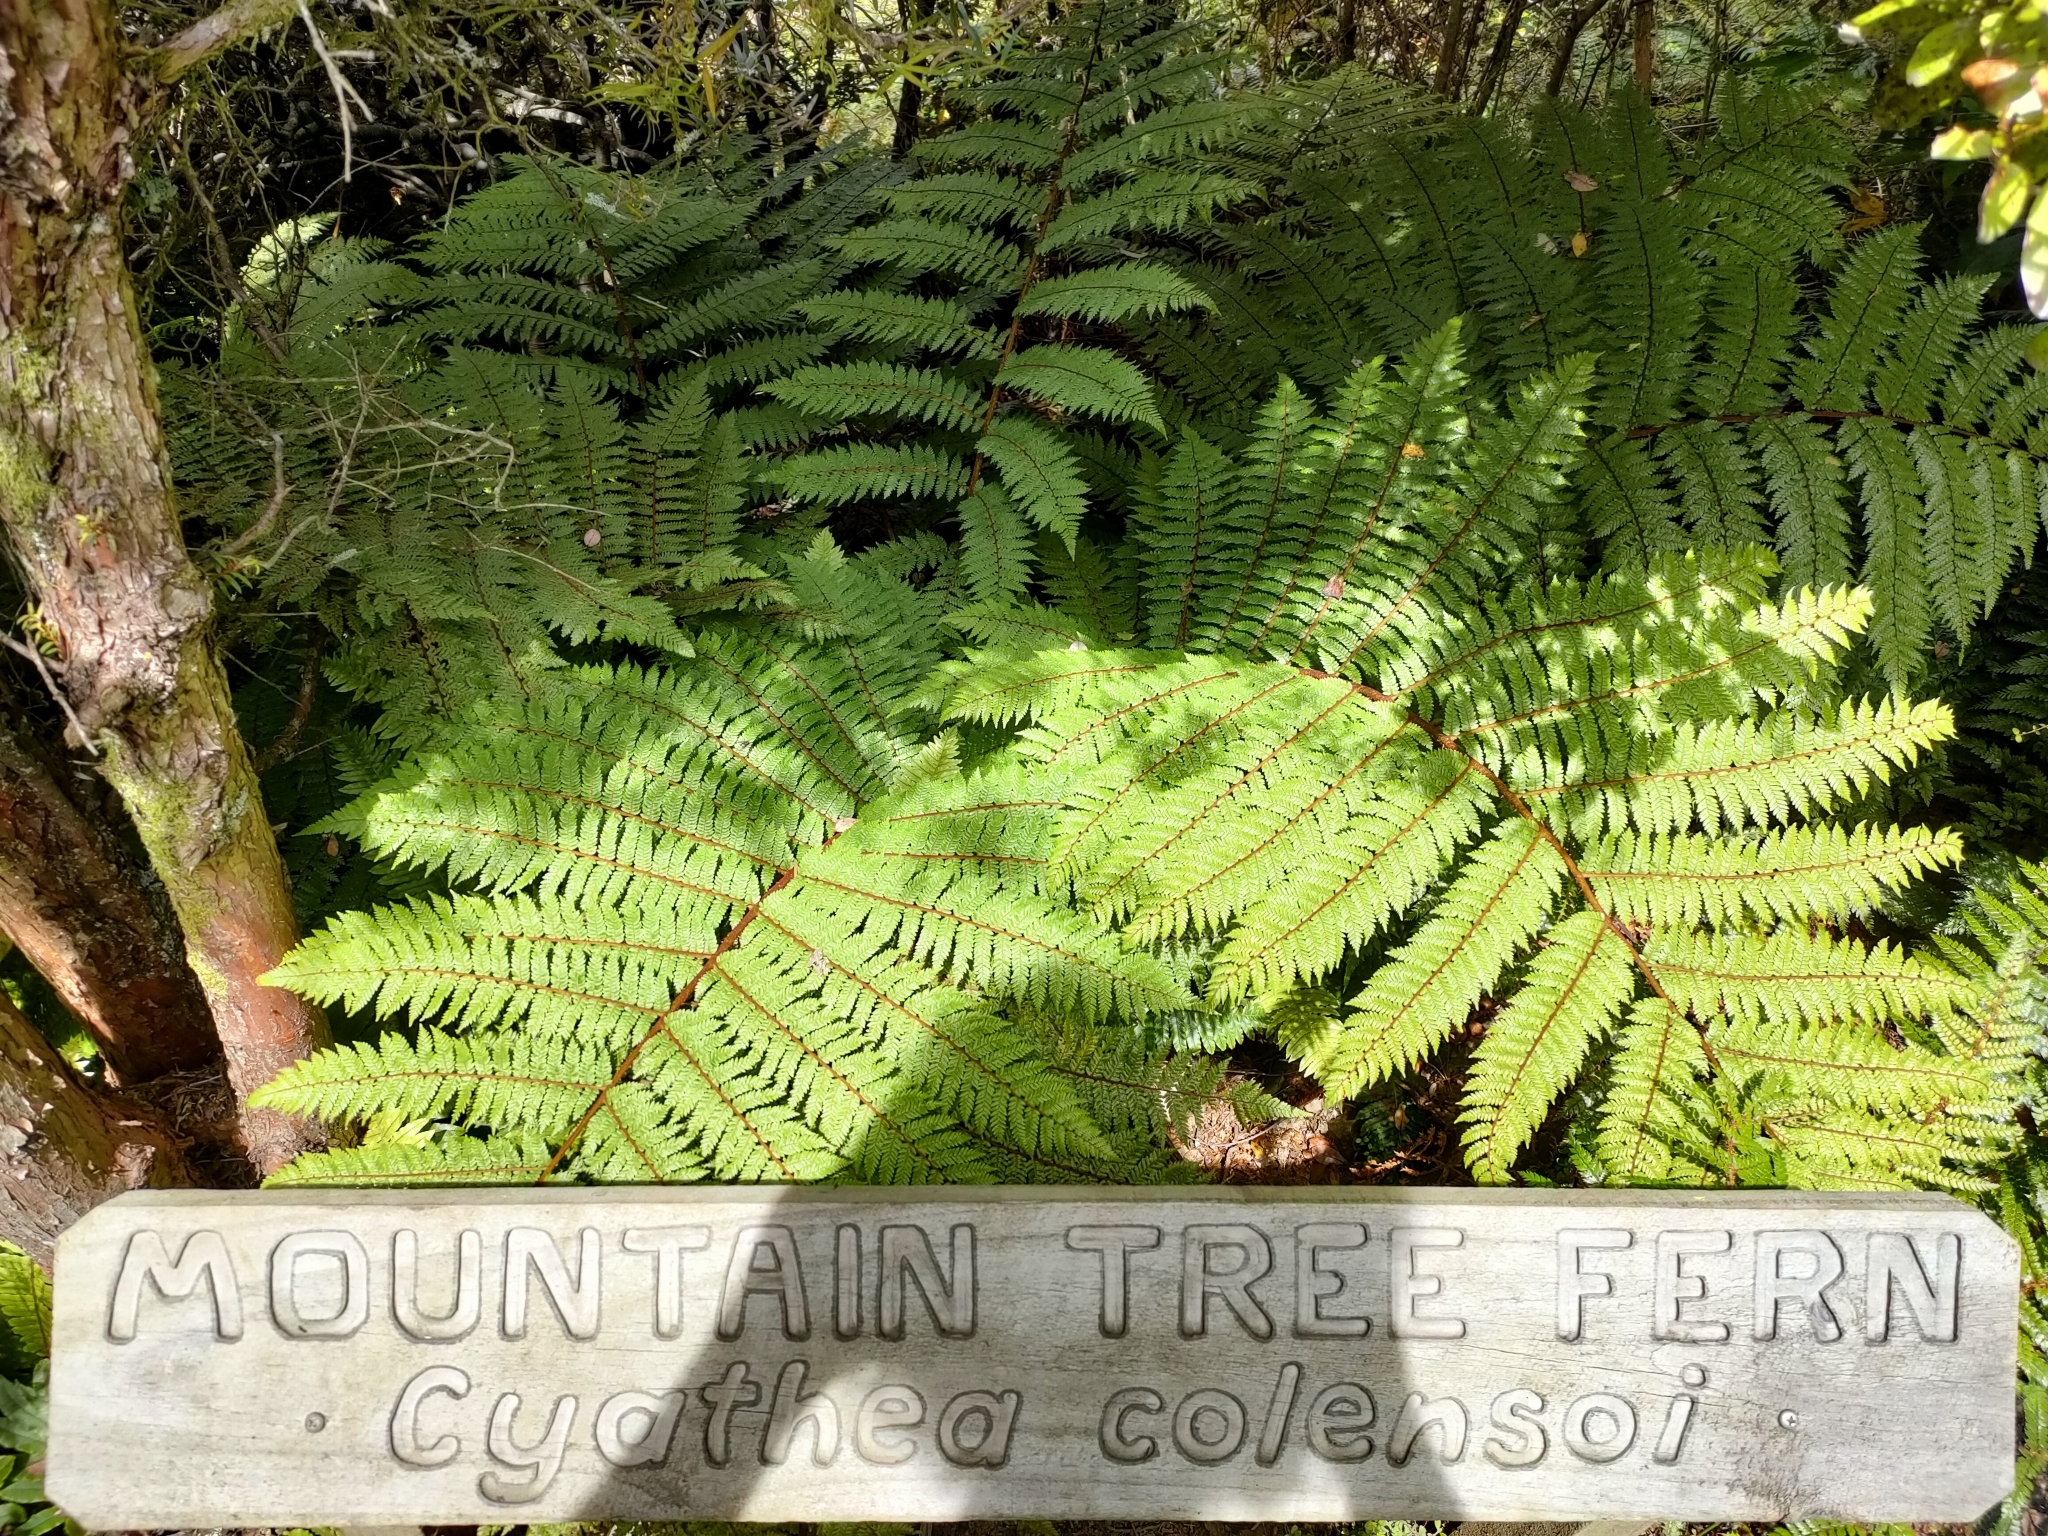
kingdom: Plantae
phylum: Tracheophyta
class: Polypodiopsida
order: Cyatheales
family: Cyatheaceae
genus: Alsophila
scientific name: Alsophila colensoi
